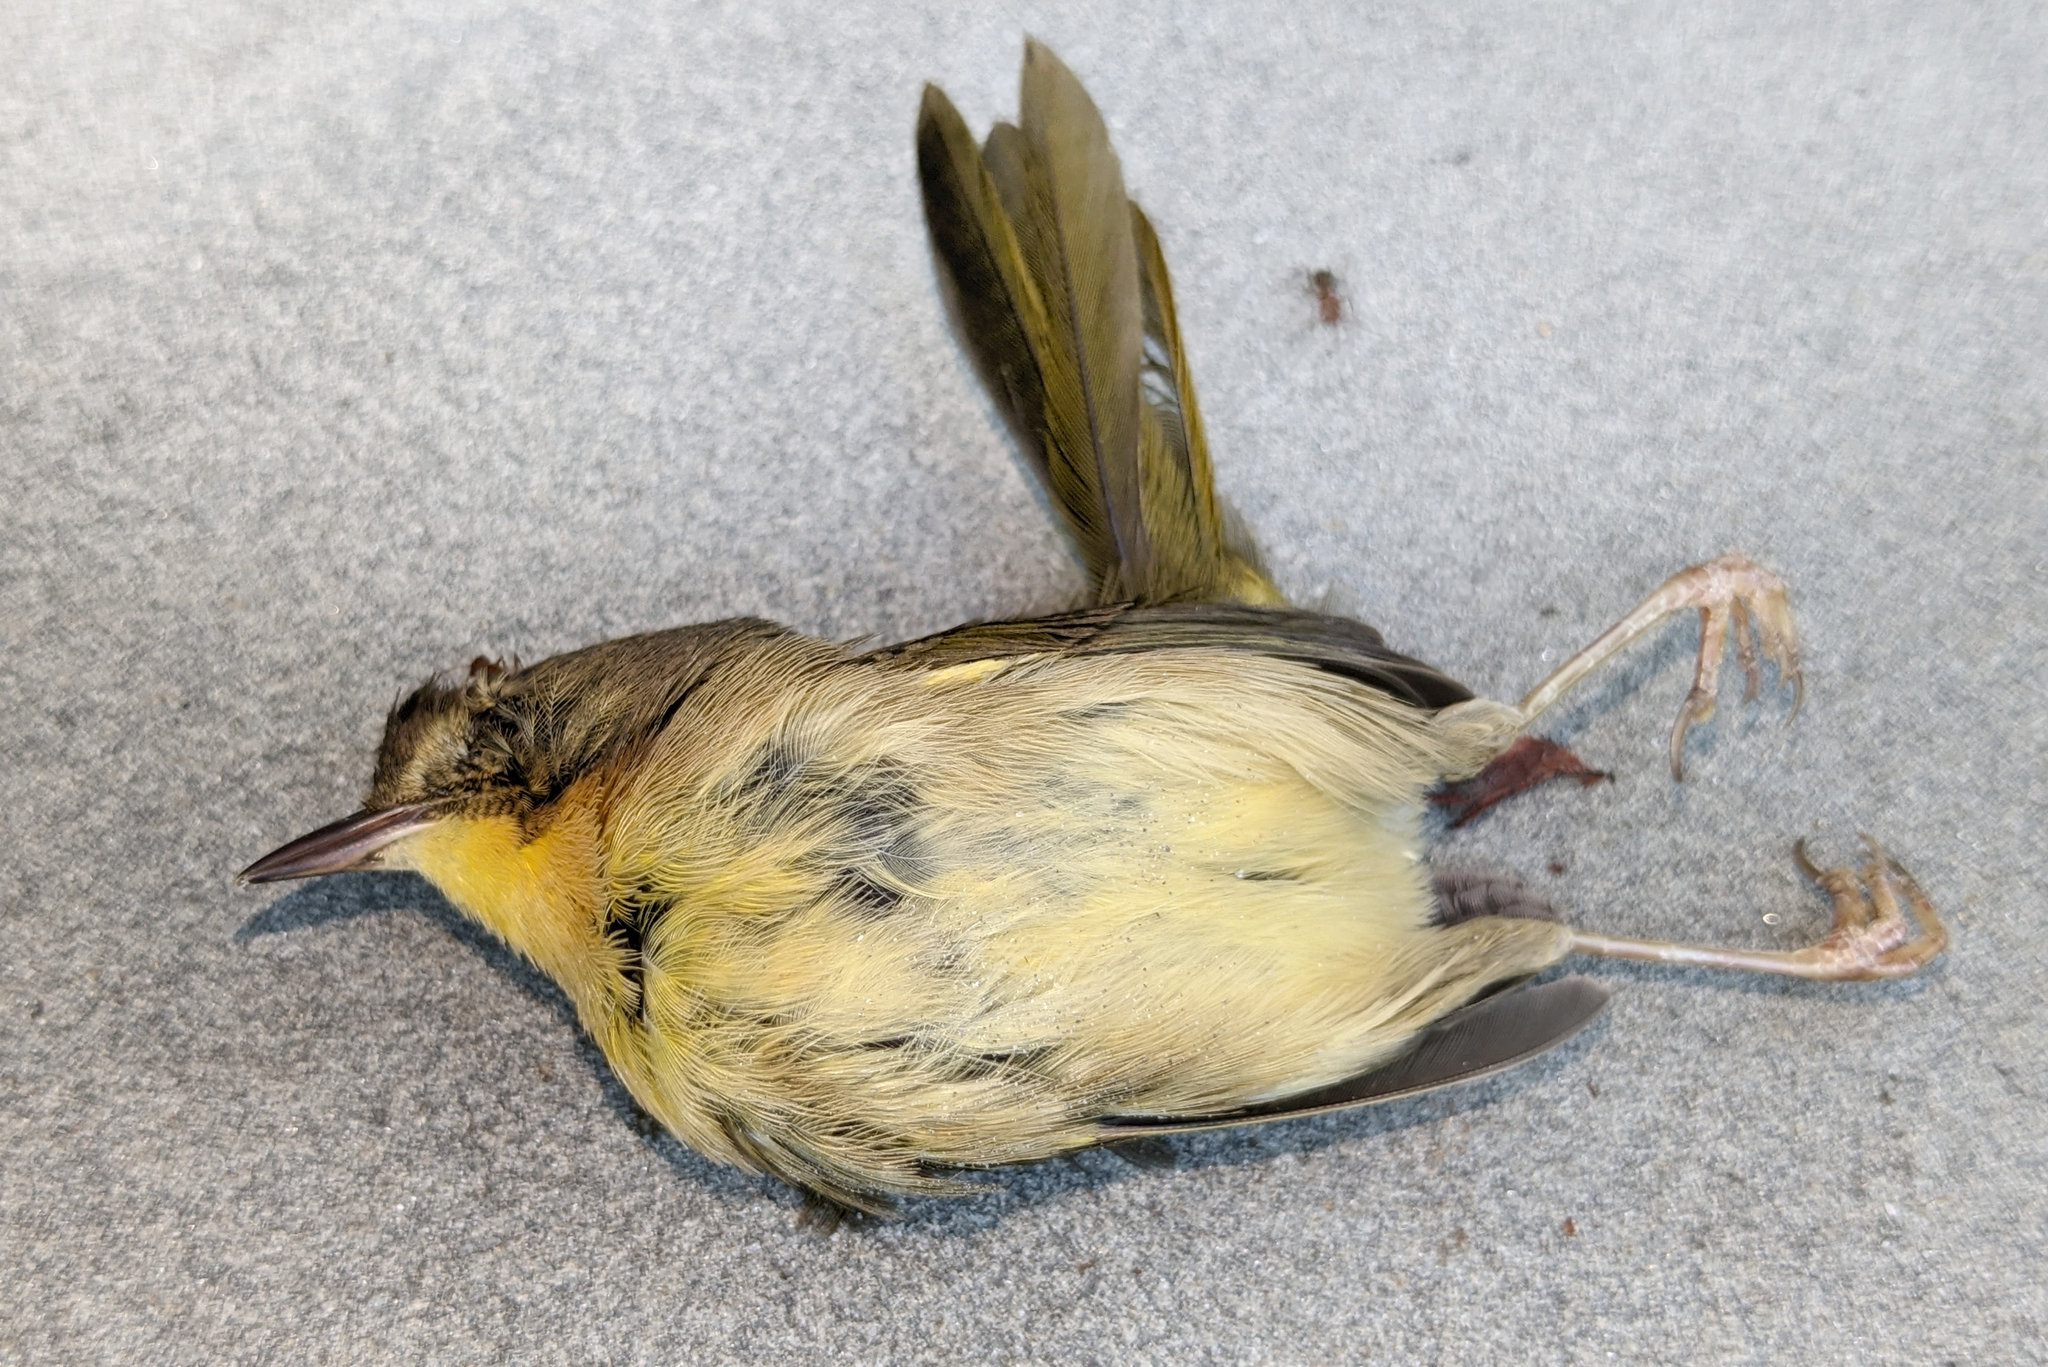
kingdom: Animalia
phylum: Chordata
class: Aves
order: Passeriformes
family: Parulidae
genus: Geothlypis
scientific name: Geothlypis trichas
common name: Common yellowthroat
